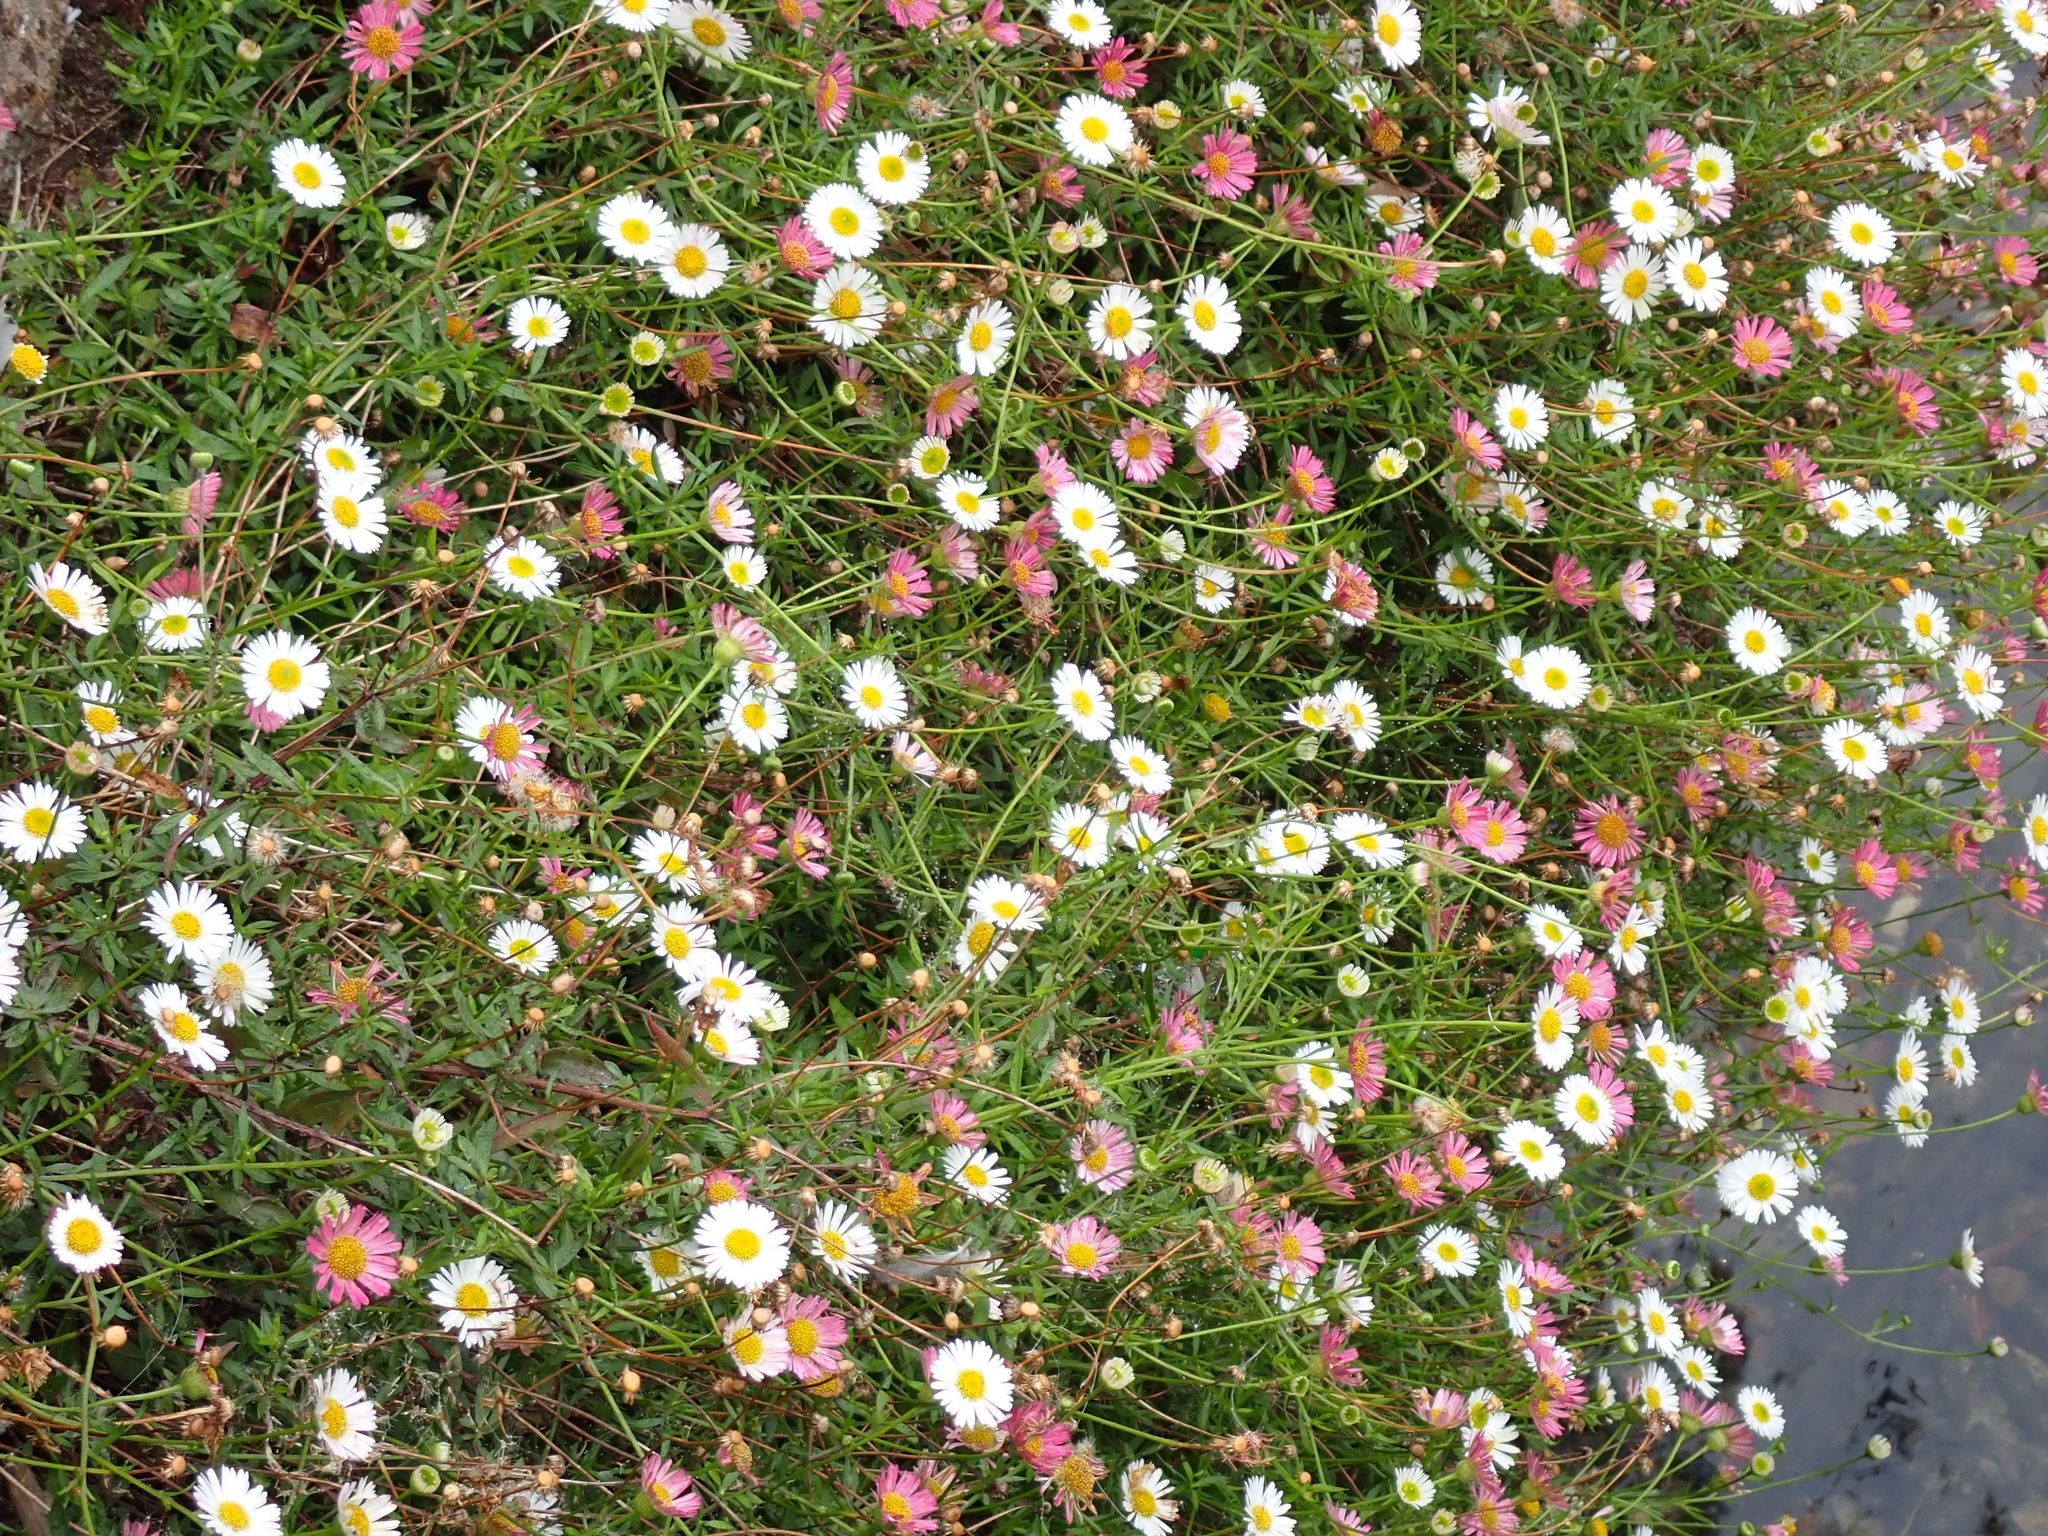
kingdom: Plantae
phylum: Tracheophyta
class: Magnoliopsida
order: Asterales
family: Asteraceae
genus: Erigeron
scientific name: Erigeron karvinskianus
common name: Mexican fleabane
